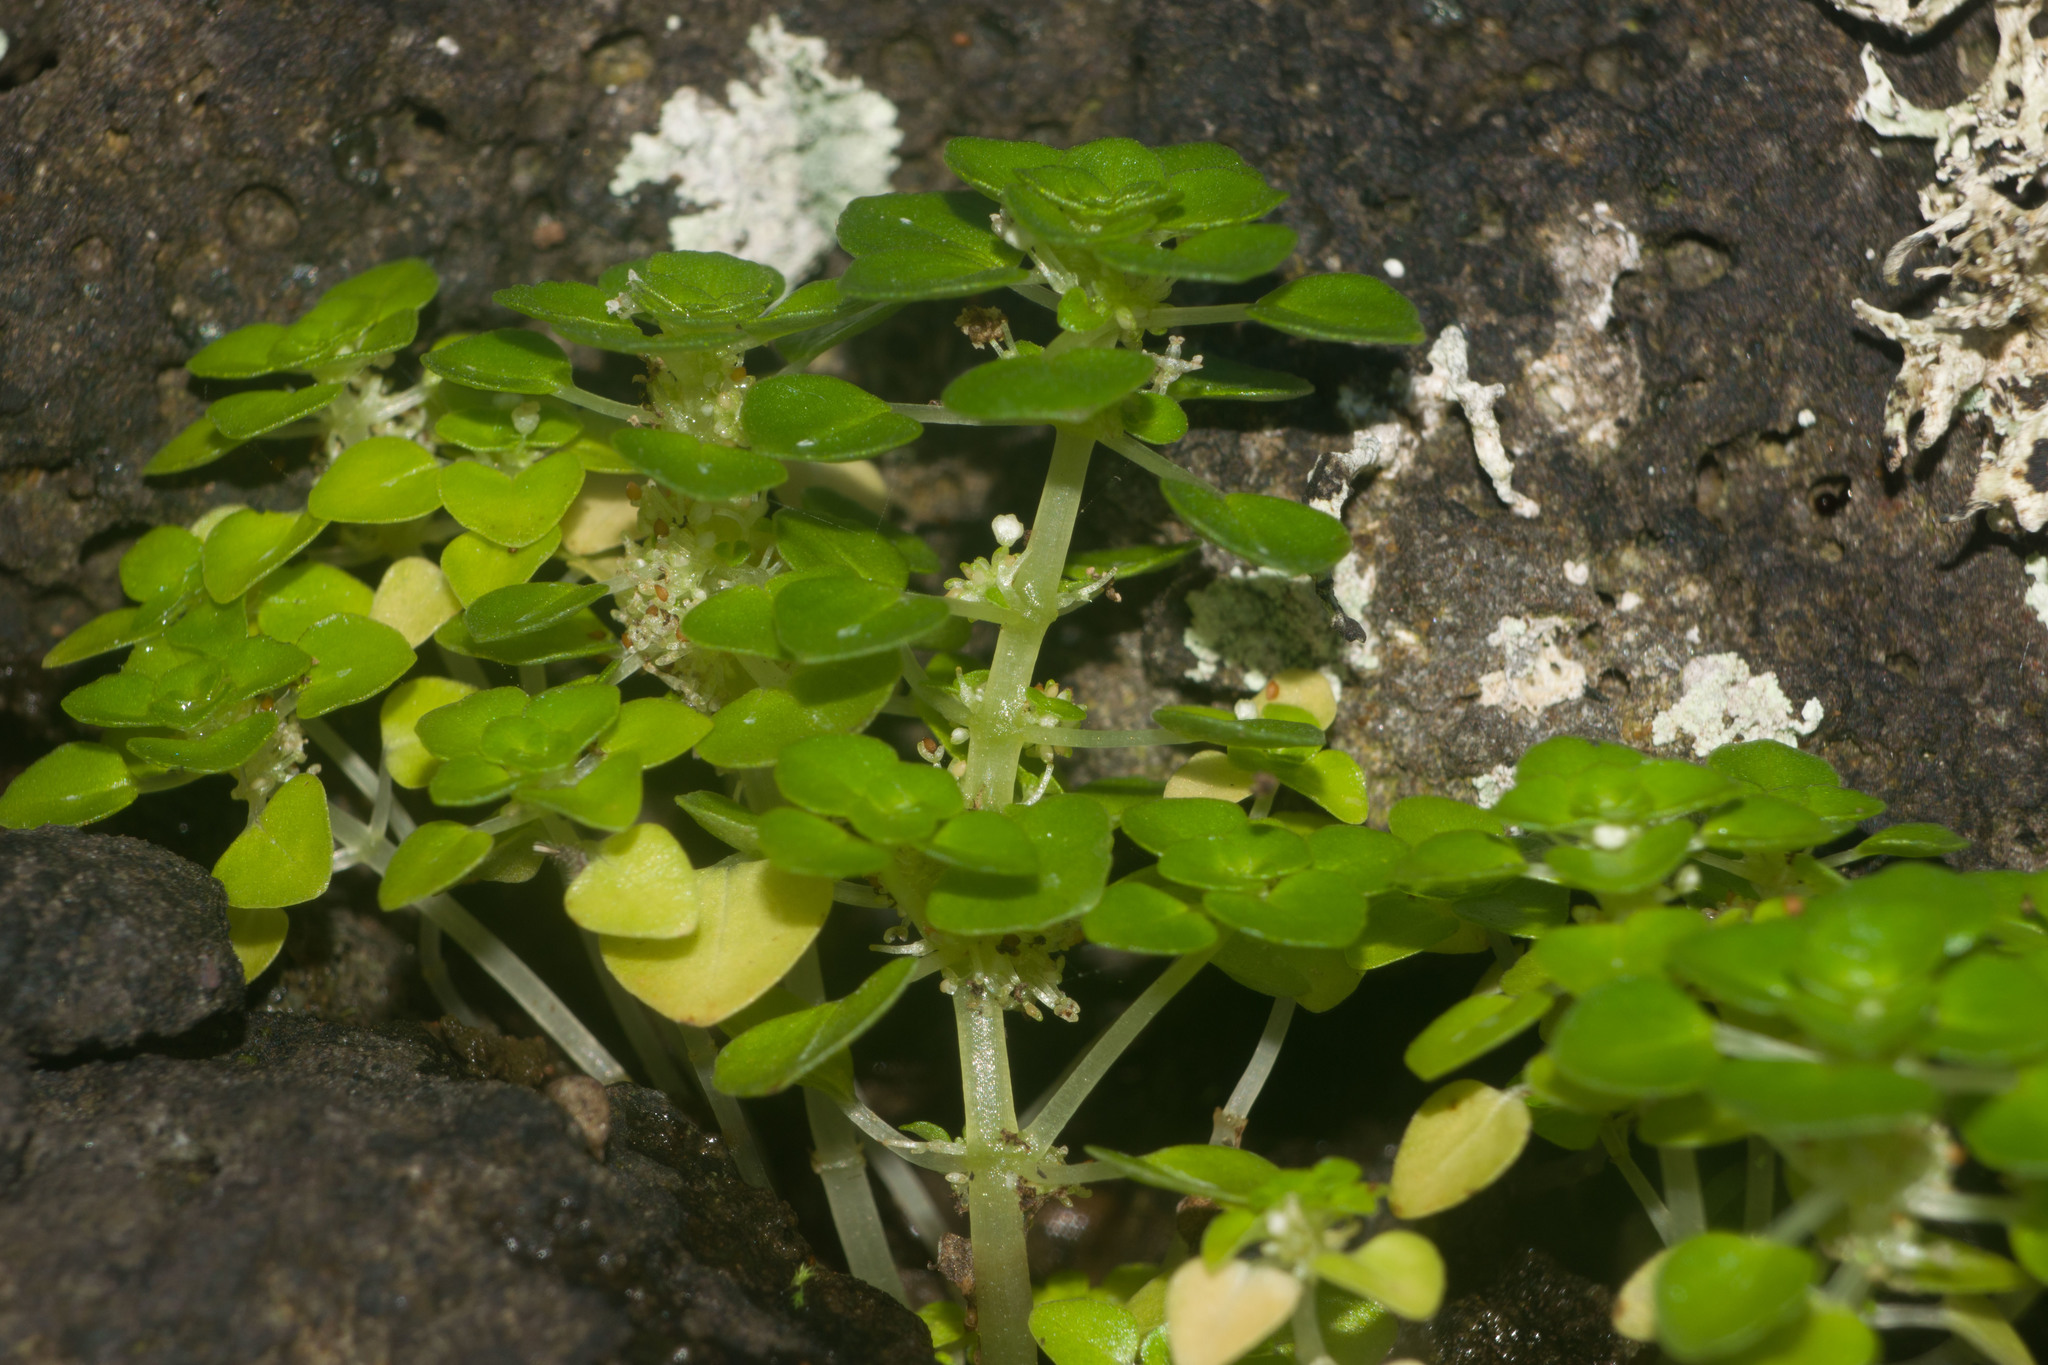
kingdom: Plantae
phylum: Tracheophyta
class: Magnoliopsida
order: Rosales
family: Urticaceae
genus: Pilea
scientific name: Pilea peploides
